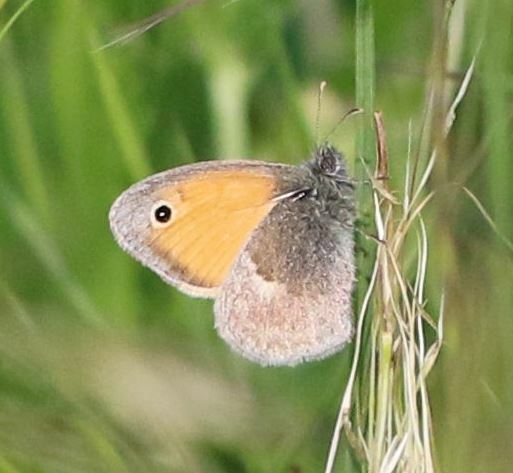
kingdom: Animalia
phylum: Arthropoda
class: Insecta
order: Lepidoptera
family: Nymphalidae
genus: Coenonympha
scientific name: Coenonympha pamphilus
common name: Small heath
